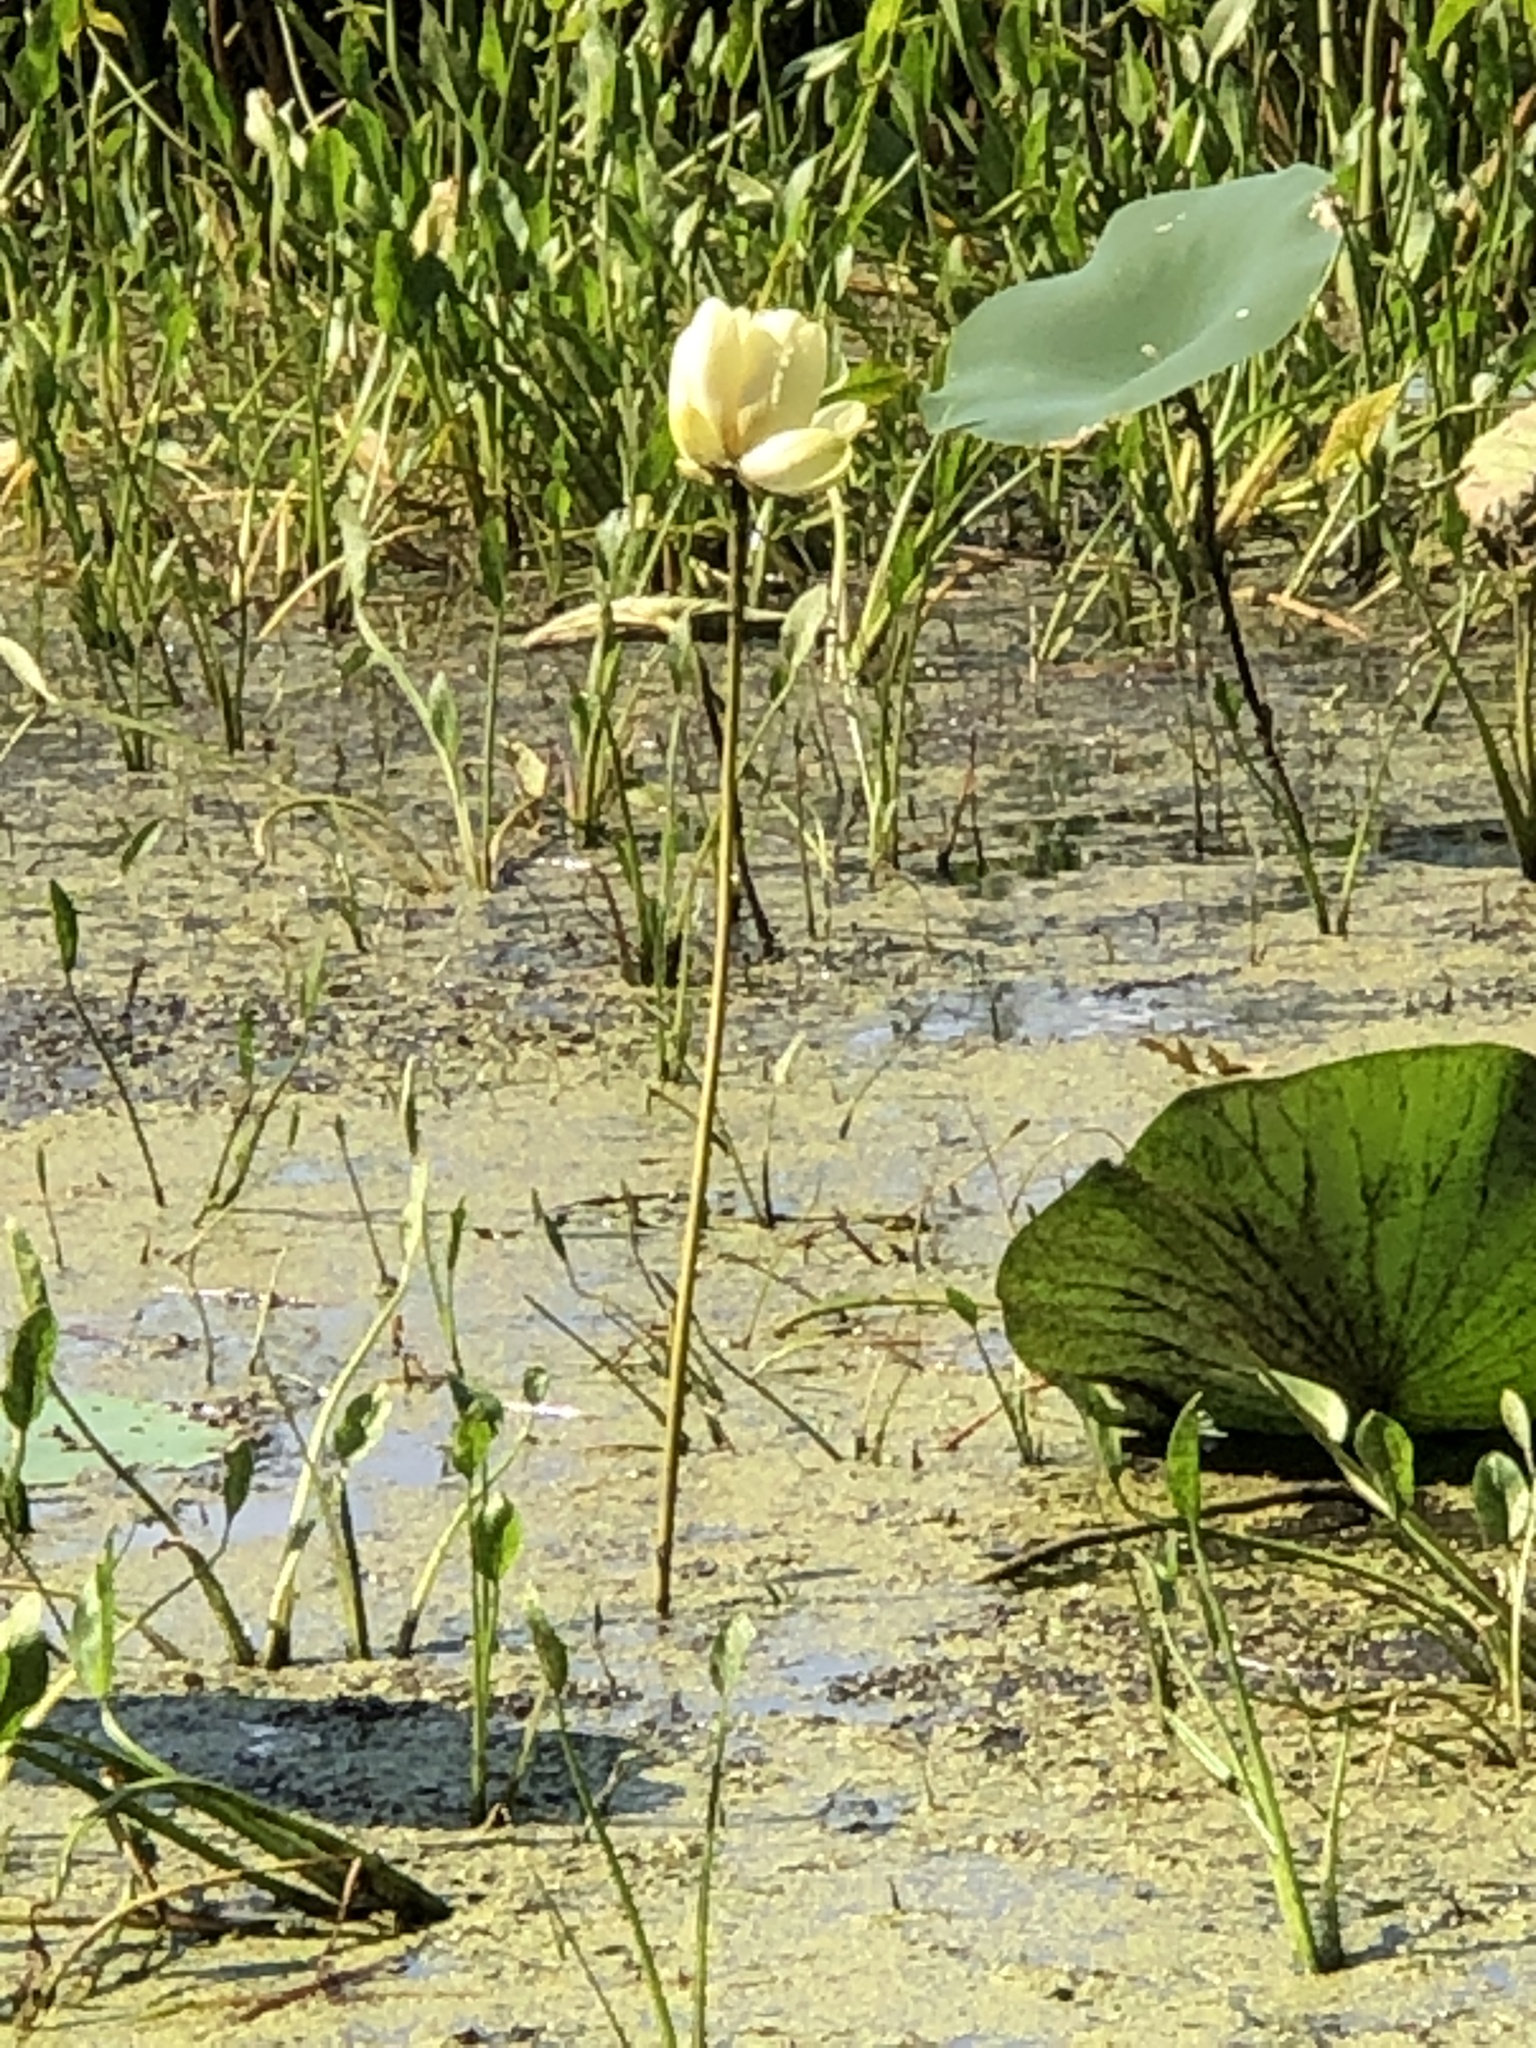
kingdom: Plantae
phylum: Tracheophyta
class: Magnoliopsida
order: Proteales
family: Nelumbonaceae
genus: Nelumbo
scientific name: Nelumbo lutea
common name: American lotus
